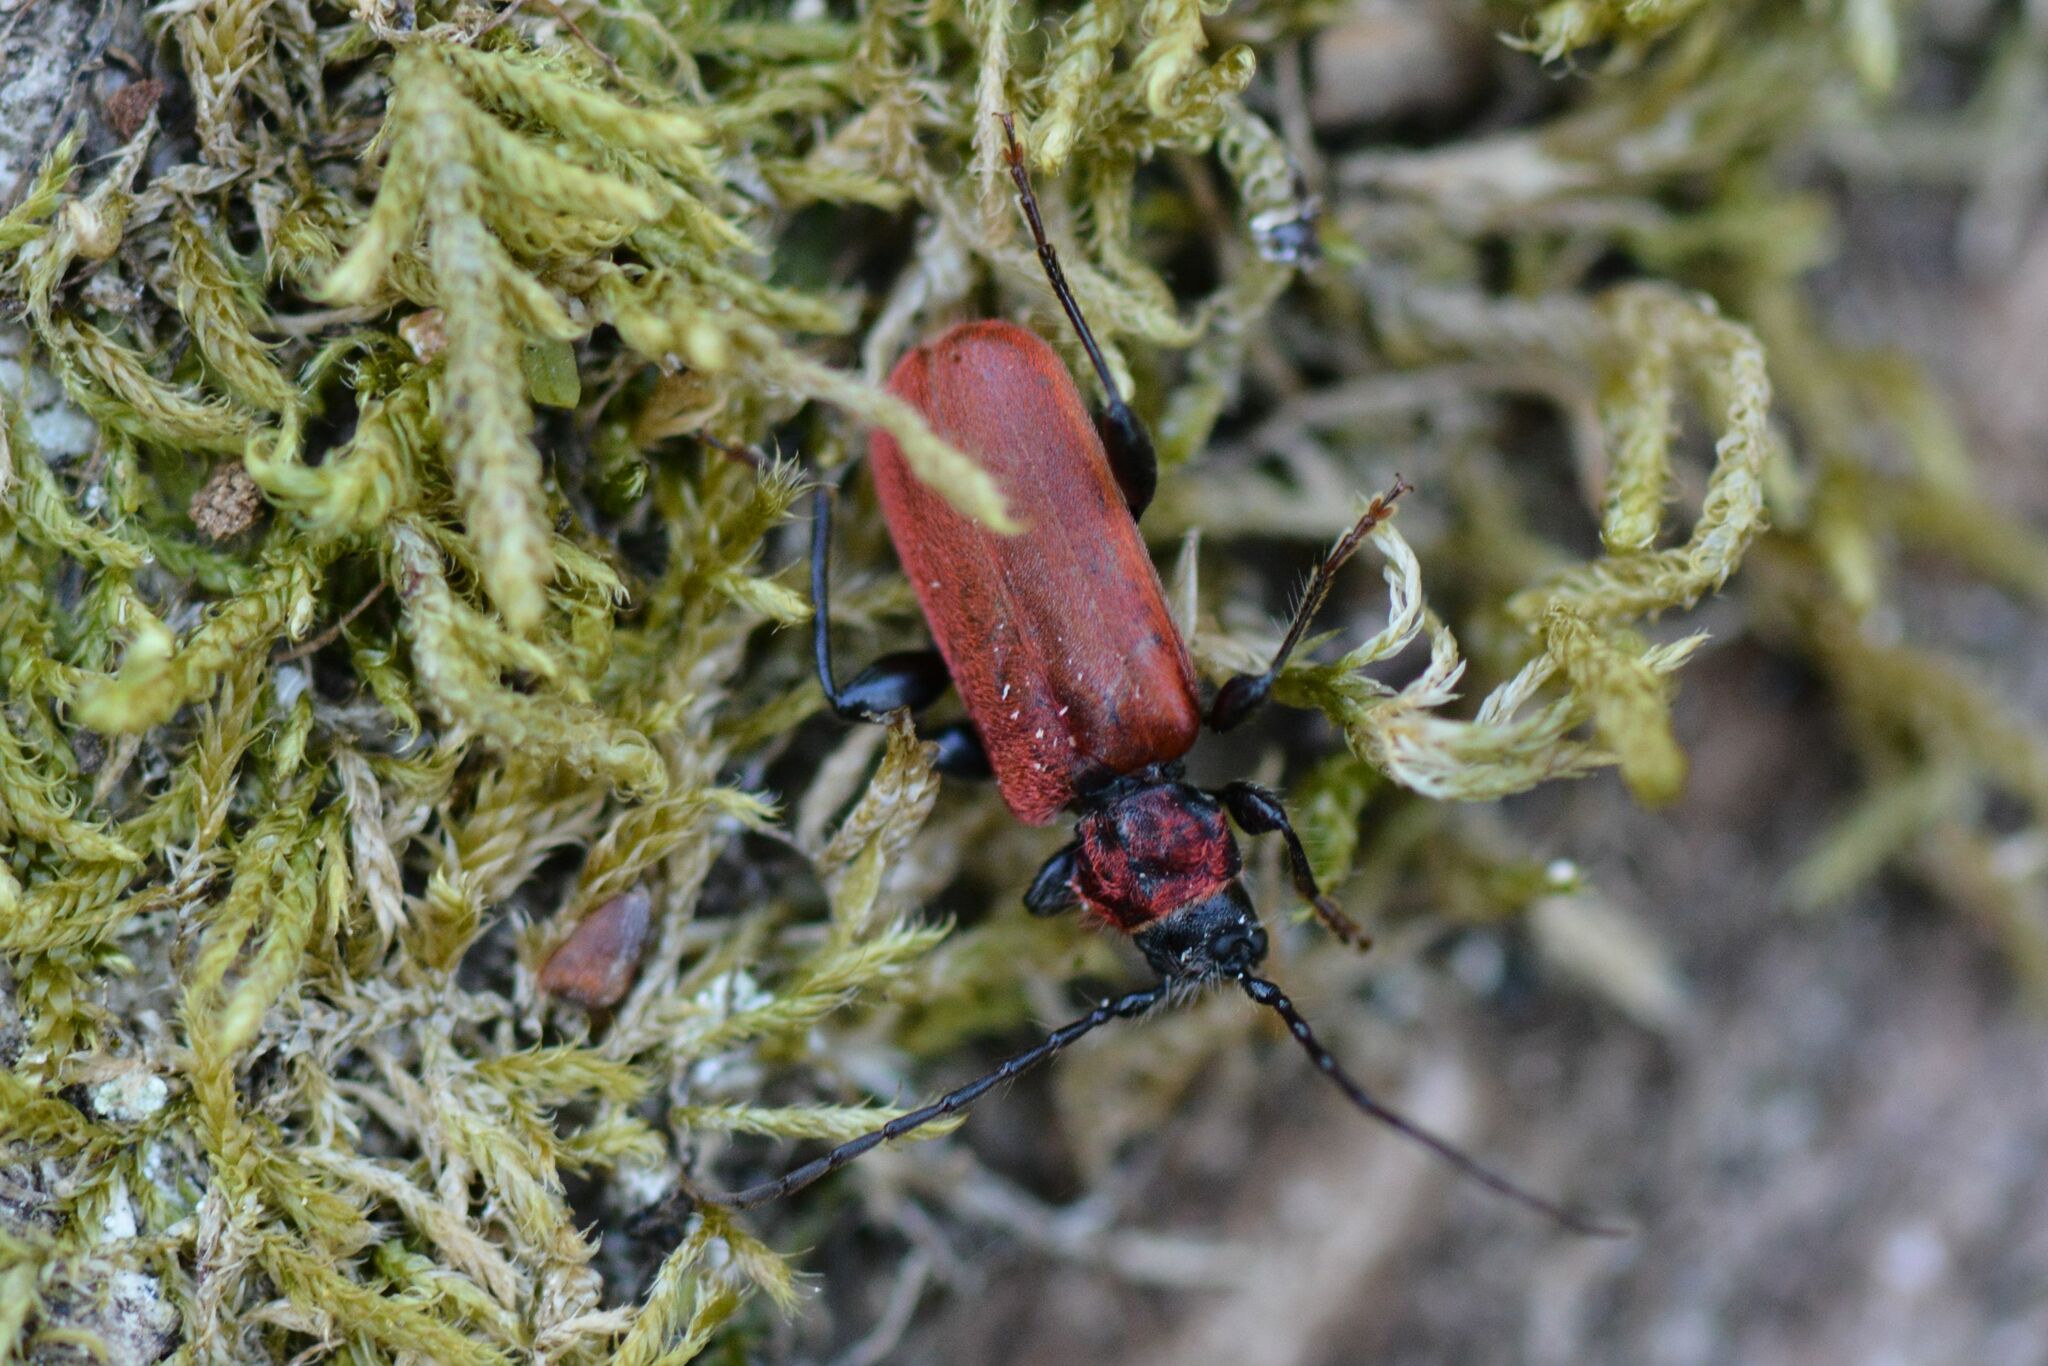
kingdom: Animalia
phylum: Arthropoda
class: Insecta
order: Coleoptera
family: Cerambycidae
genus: Pyrrhidium
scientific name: Pyrrhidium sanguineum
